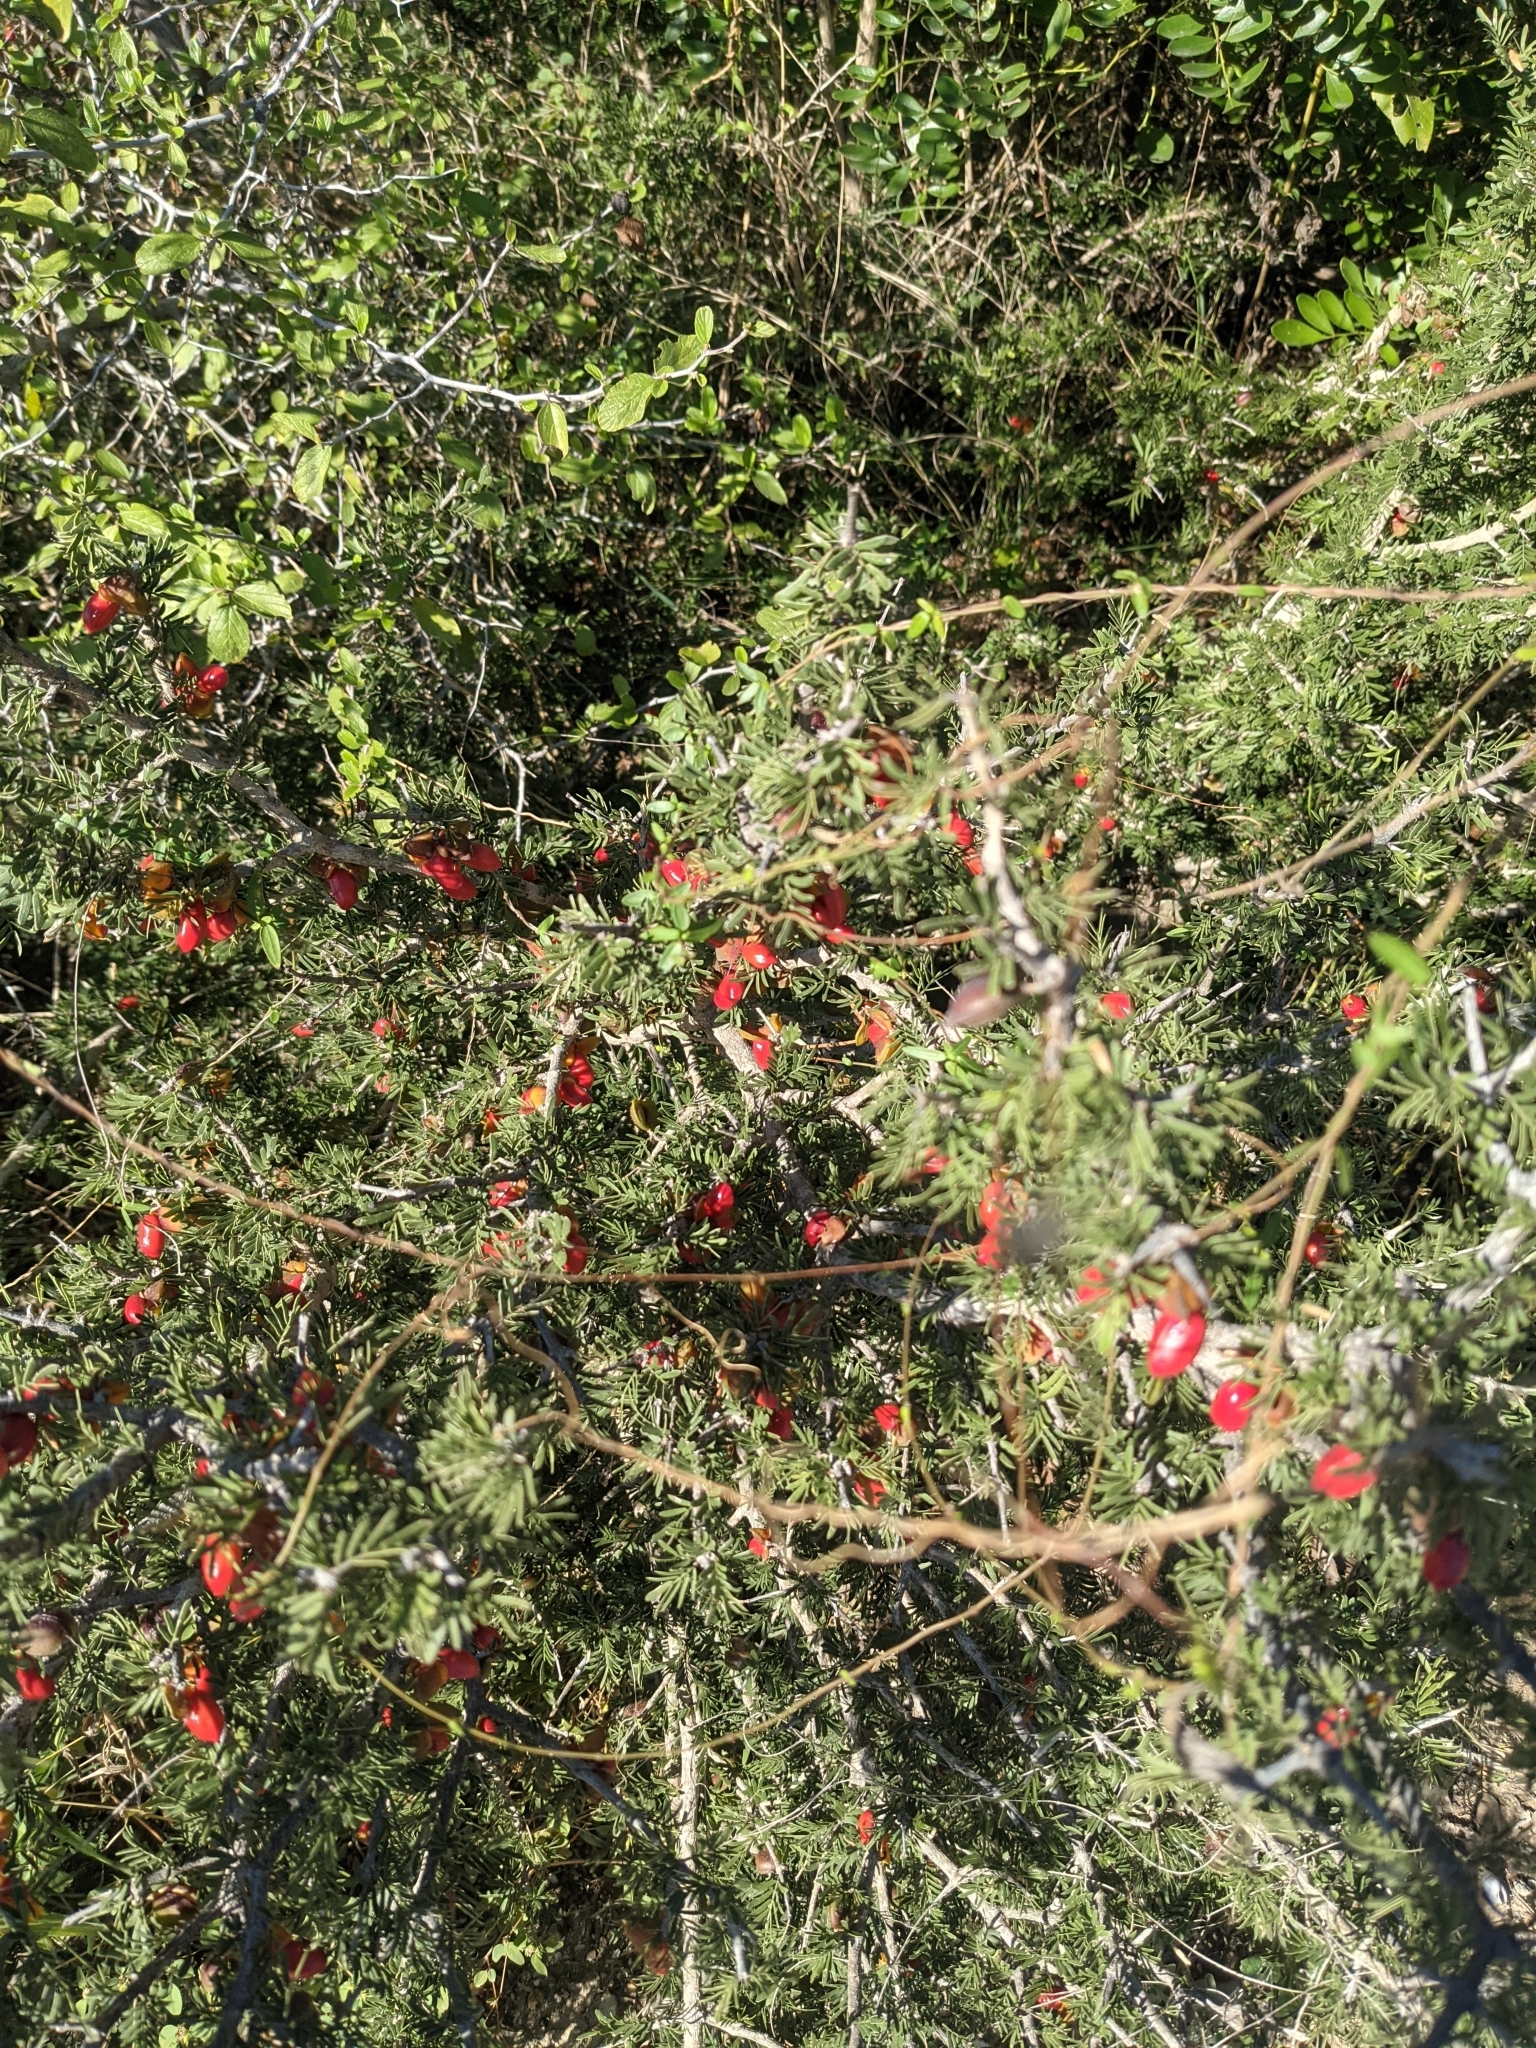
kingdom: Plantae
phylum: Tracheophyta
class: Magnoliopsida
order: Zygophyllales
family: Zygophyllaceae
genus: Porlieria
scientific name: Porlieria angustifolia
